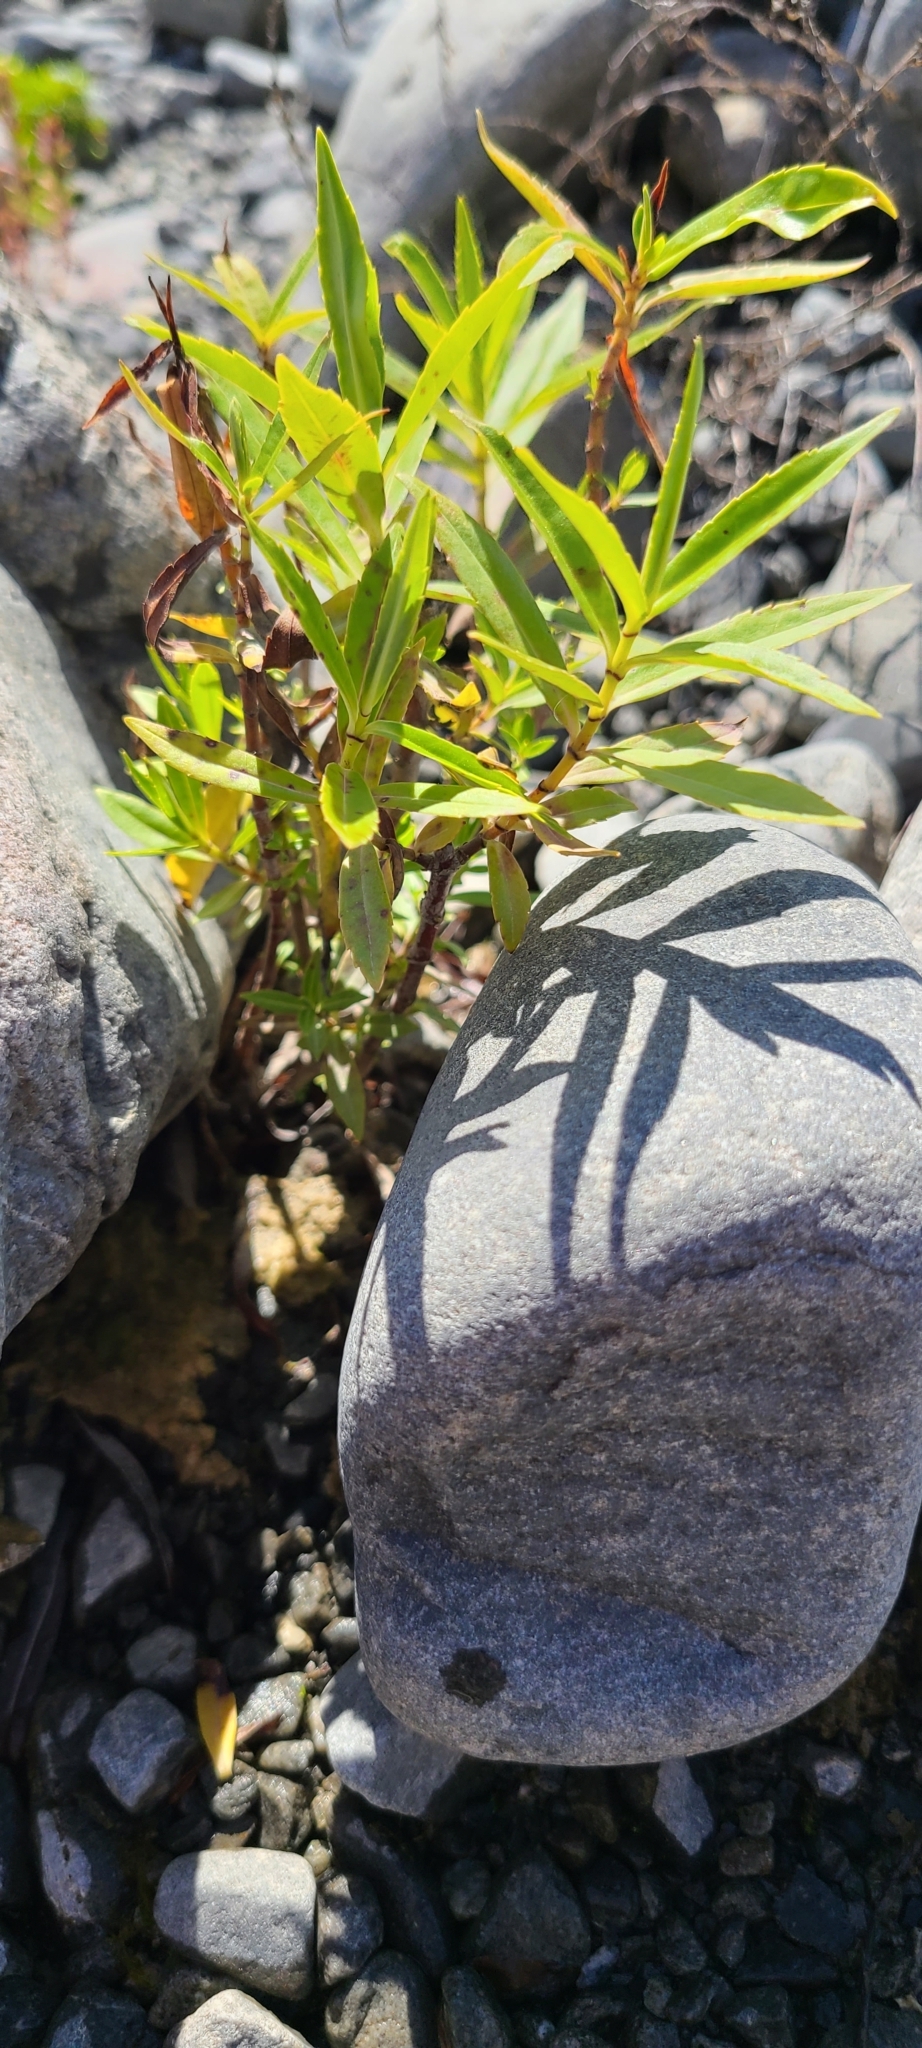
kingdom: Plantae
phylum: Tracheophyta
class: Magnoliopsida
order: Lamiales
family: Plantaginaceae
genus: Veronica
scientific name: Veronica salicifolia
